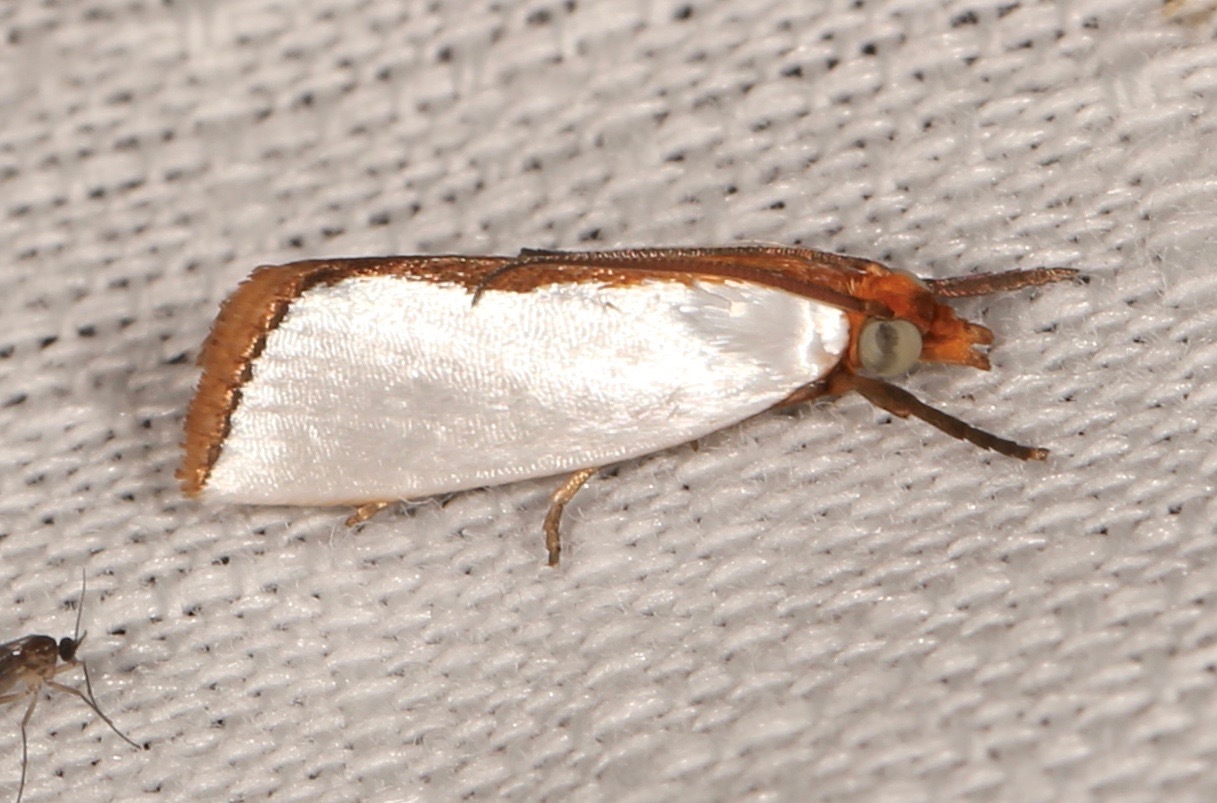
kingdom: Animalia
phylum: Arthropoda
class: Insecta
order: Lepidoptera
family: Crambidae
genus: Argyria
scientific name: Argyria
